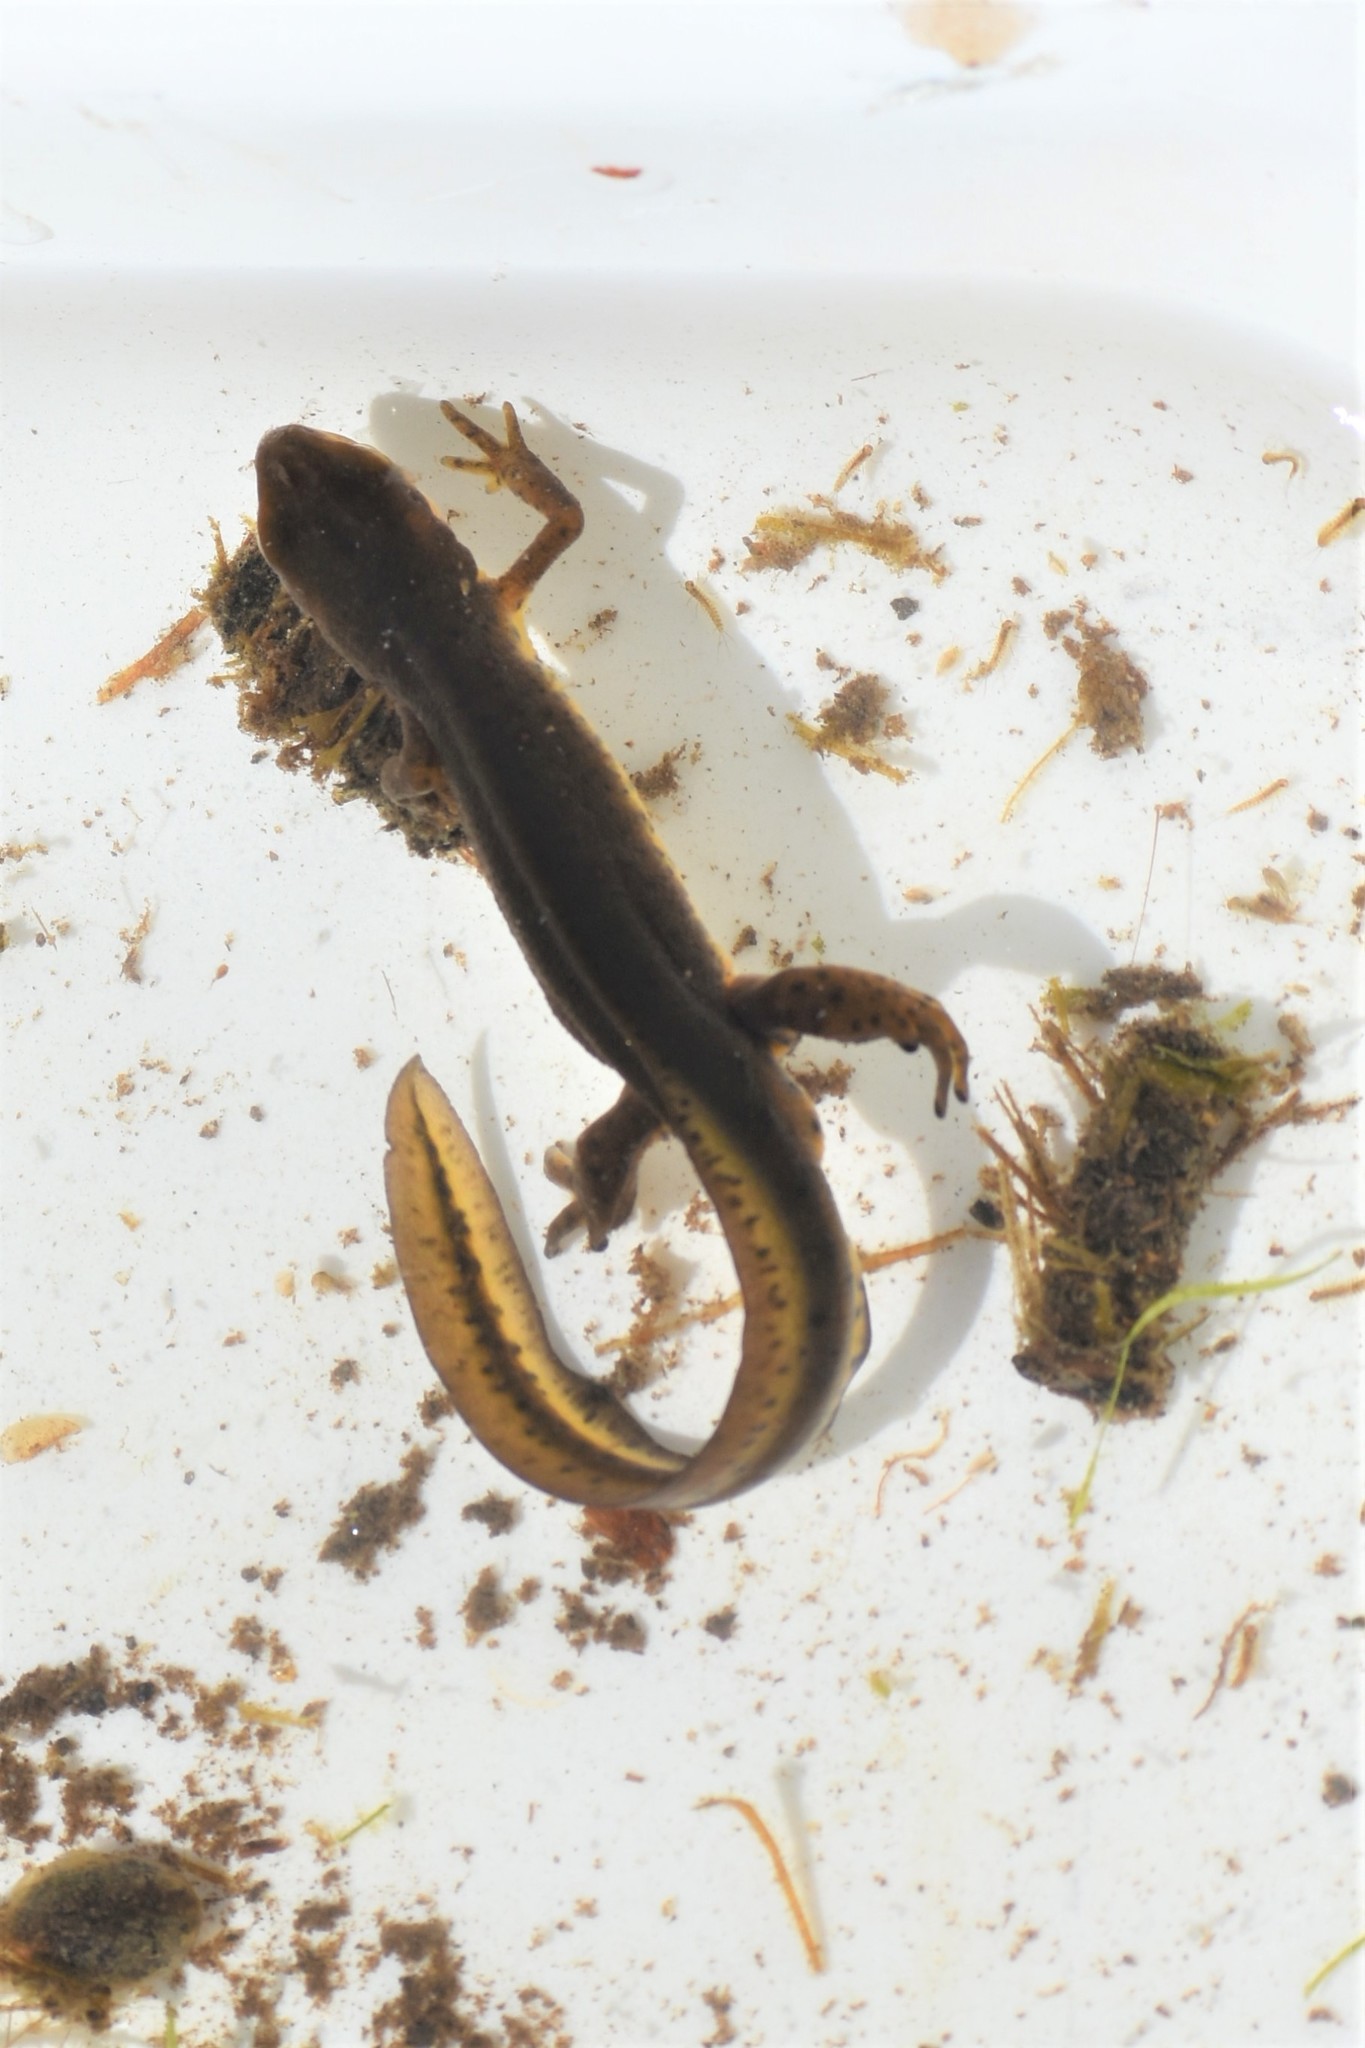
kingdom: Animalia
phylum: Chordata
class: Amphibia
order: Caudata
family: Salamandridae
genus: Notophthalmus
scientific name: Notophthalmus viridescens
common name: Eastern newt
